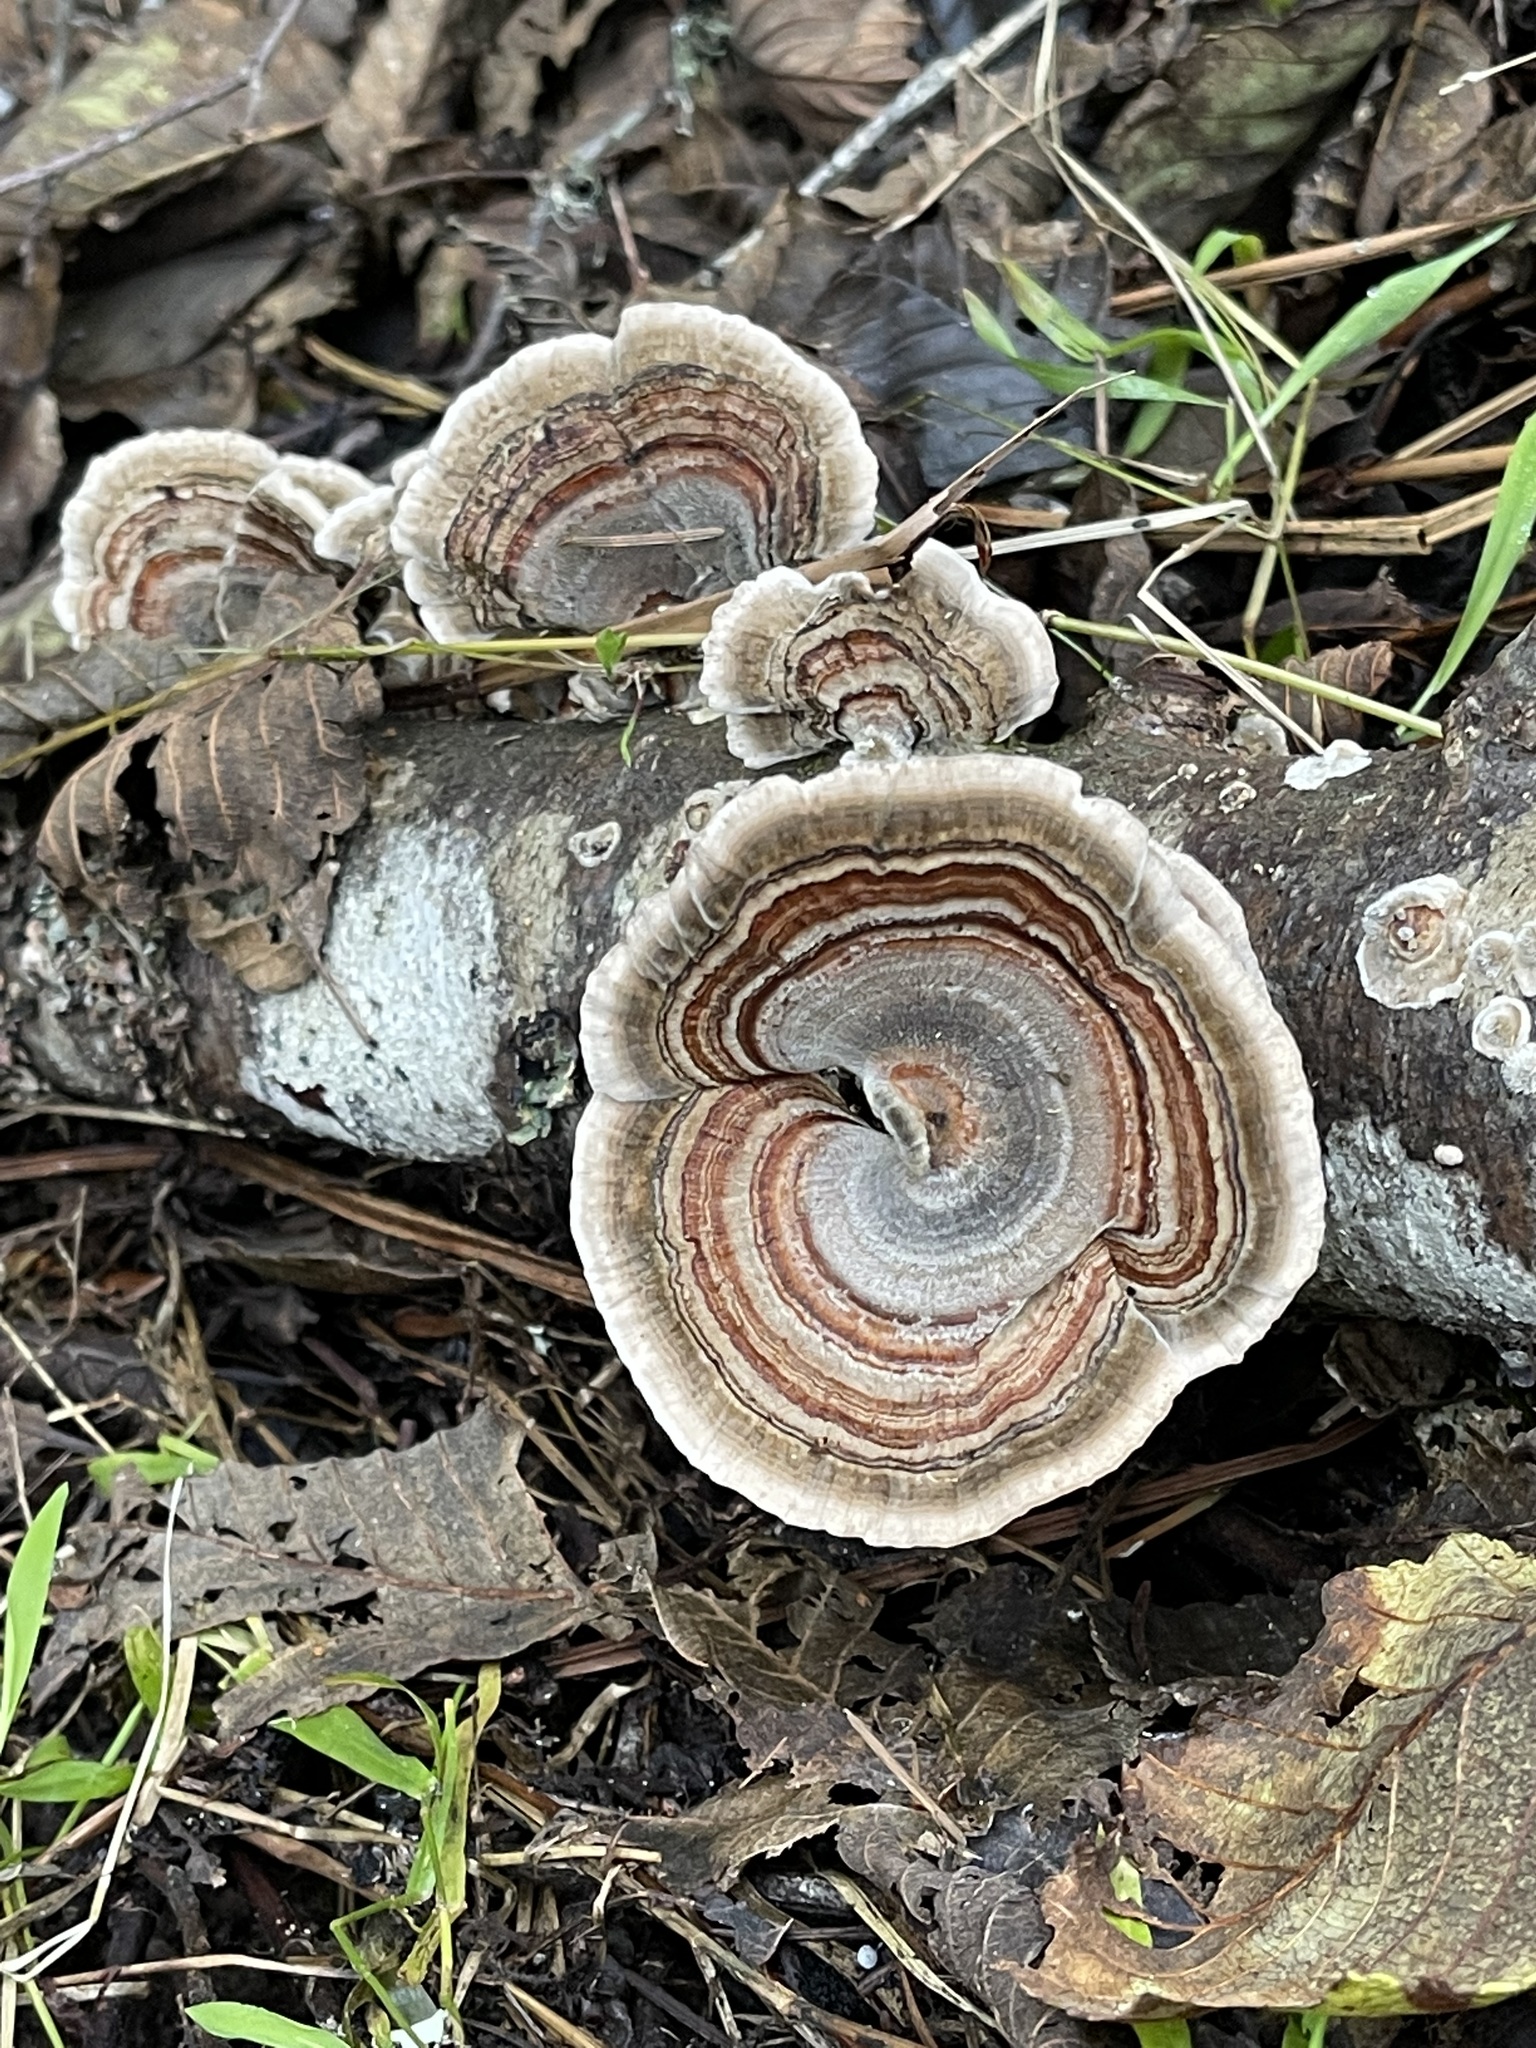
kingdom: Fungi
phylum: Basidiomycota
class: Agaricomycetes
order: Polyporales
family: Polyporaceae
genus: Trametes
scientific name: Trametes versicolor
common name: Turkeytail
